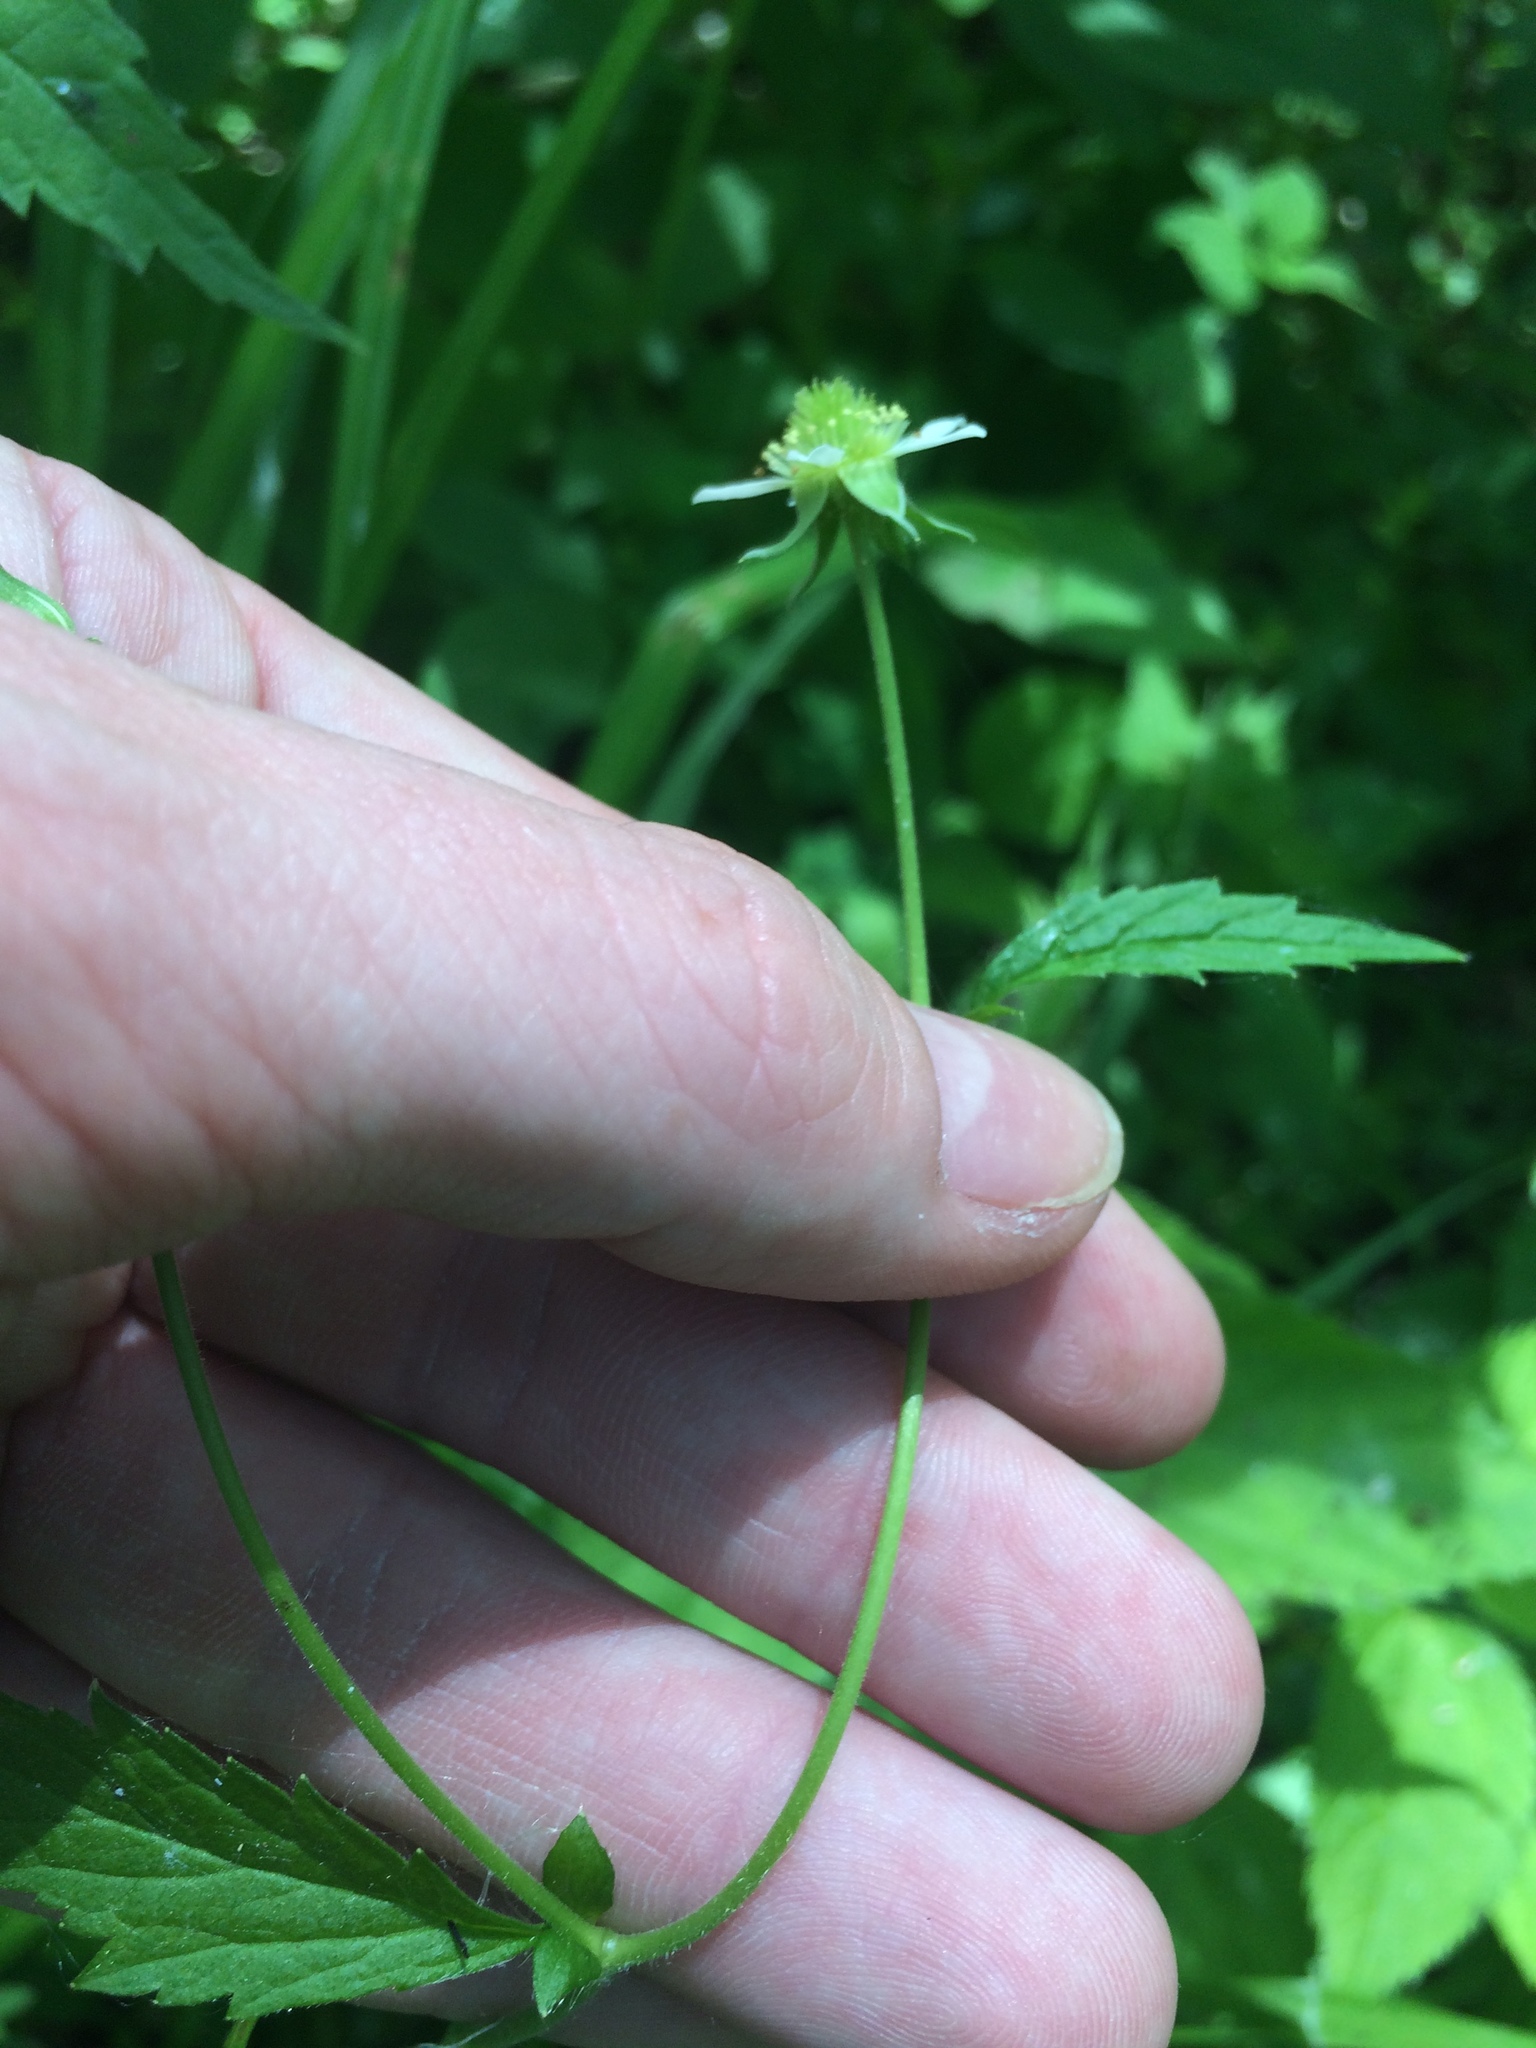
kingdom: Plantae
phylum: Tracheophyta
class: Magnoliopsida
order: Rosales
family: Rosaceae
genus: Geum
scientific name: Geum canadense
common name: White avens
